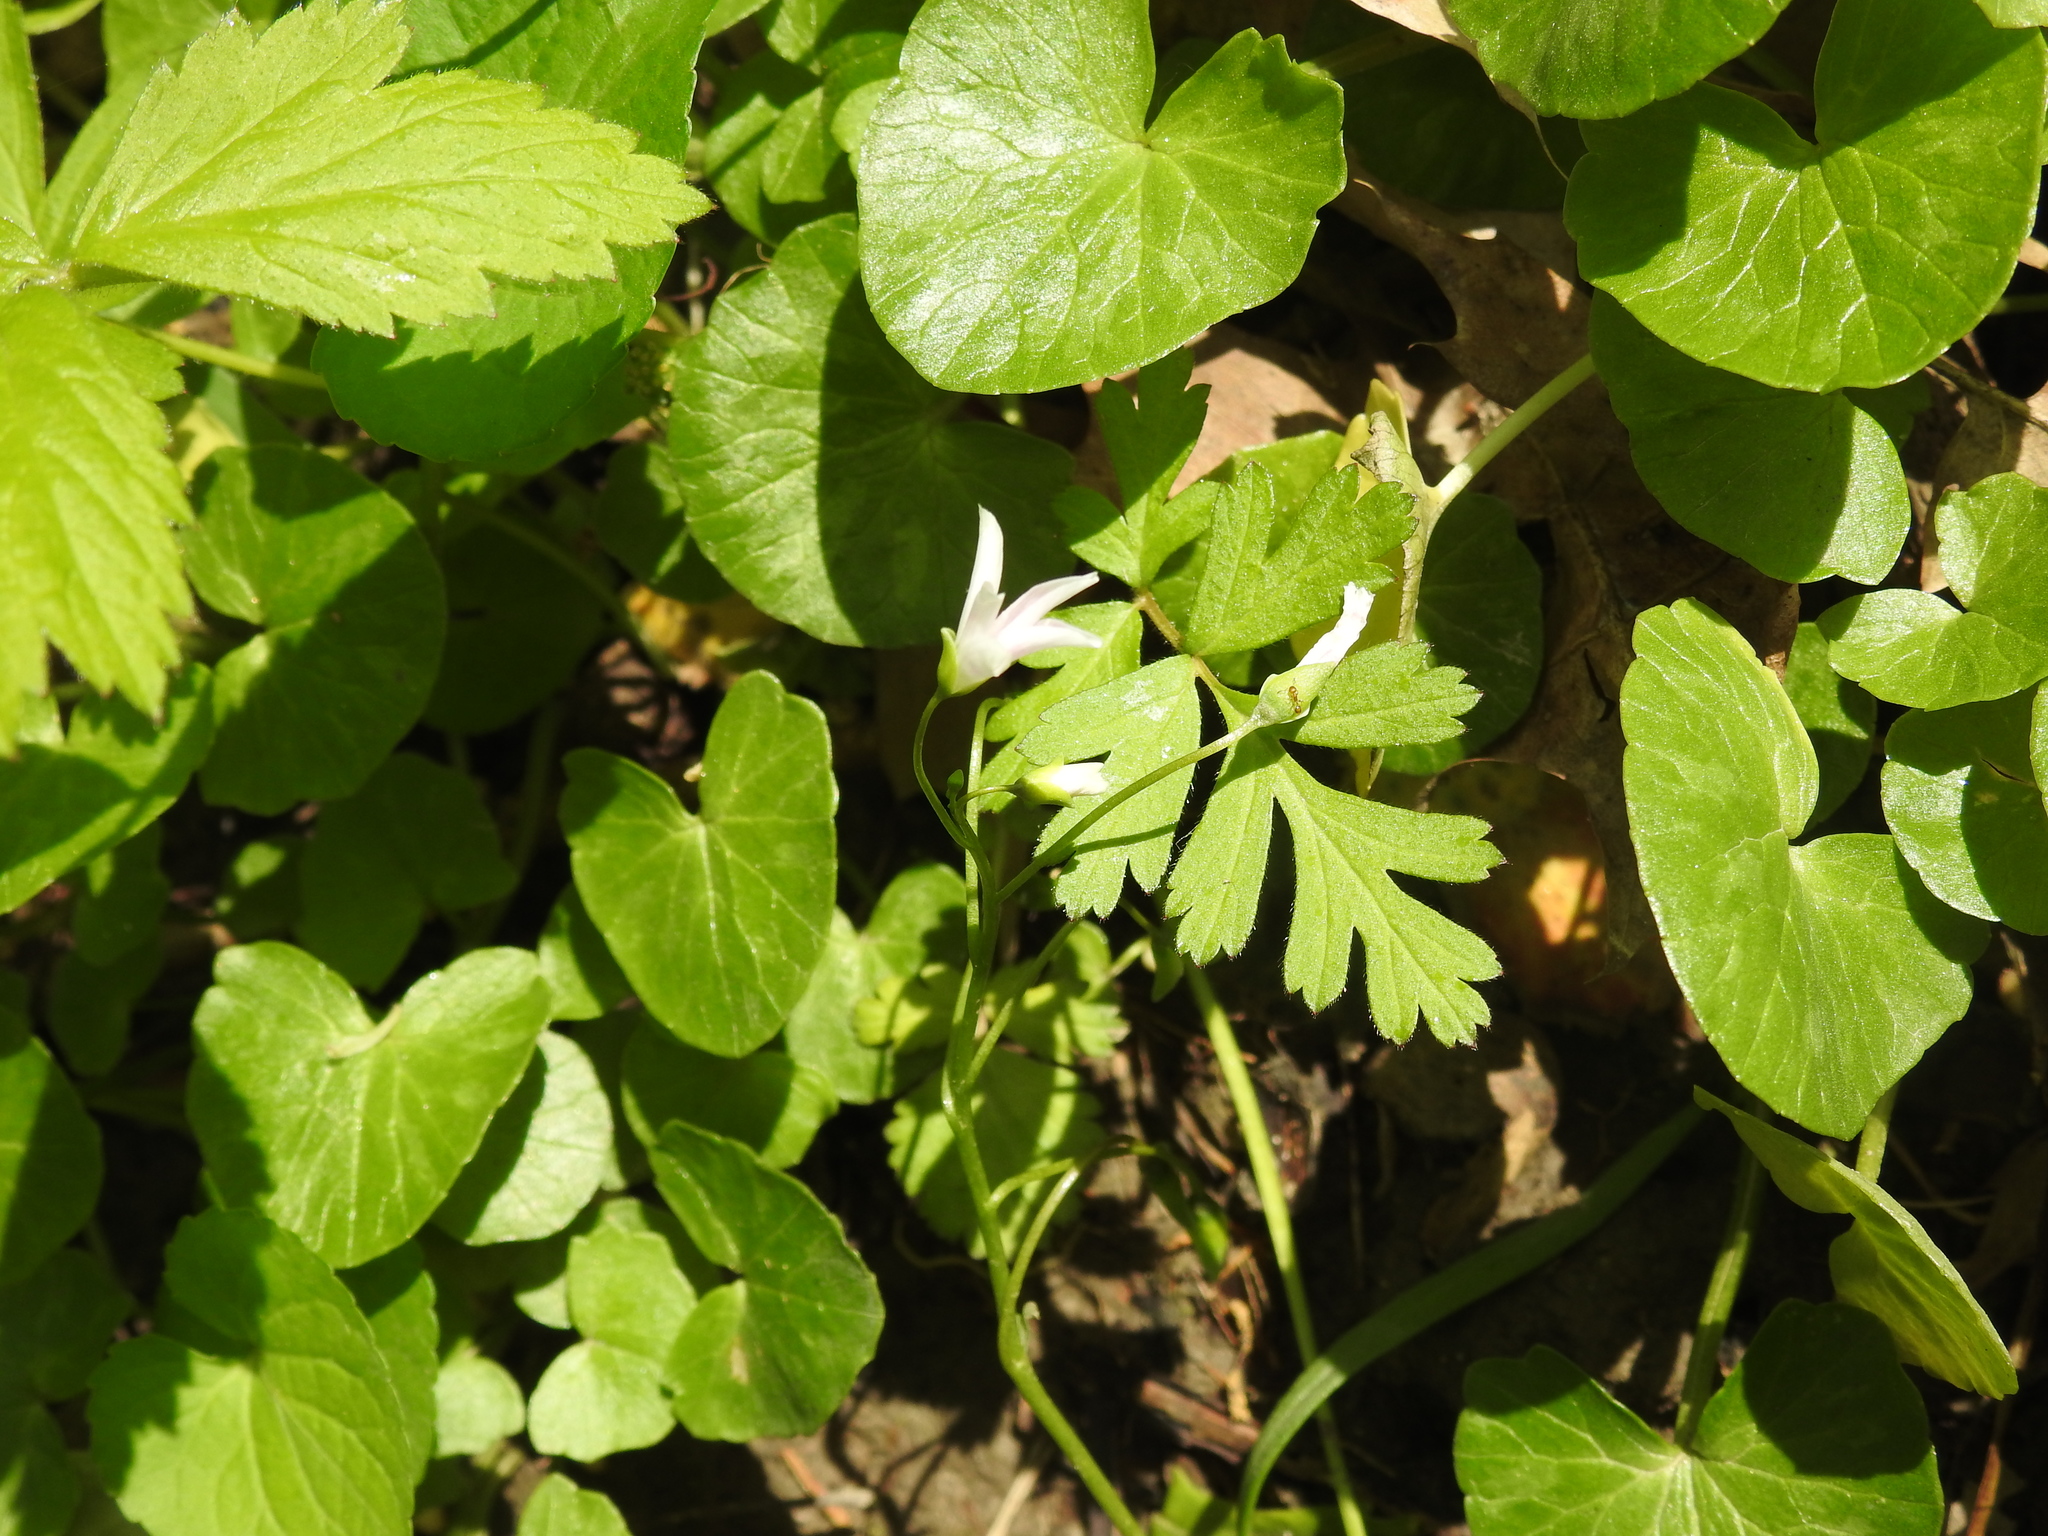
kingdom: Plantae
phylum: Tracheophyta
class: Magnoliopsida
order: Caryophyllales
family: Montiaceae
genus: Claytonia
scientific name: Claytonia virginica
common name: Virginia springbeauty
